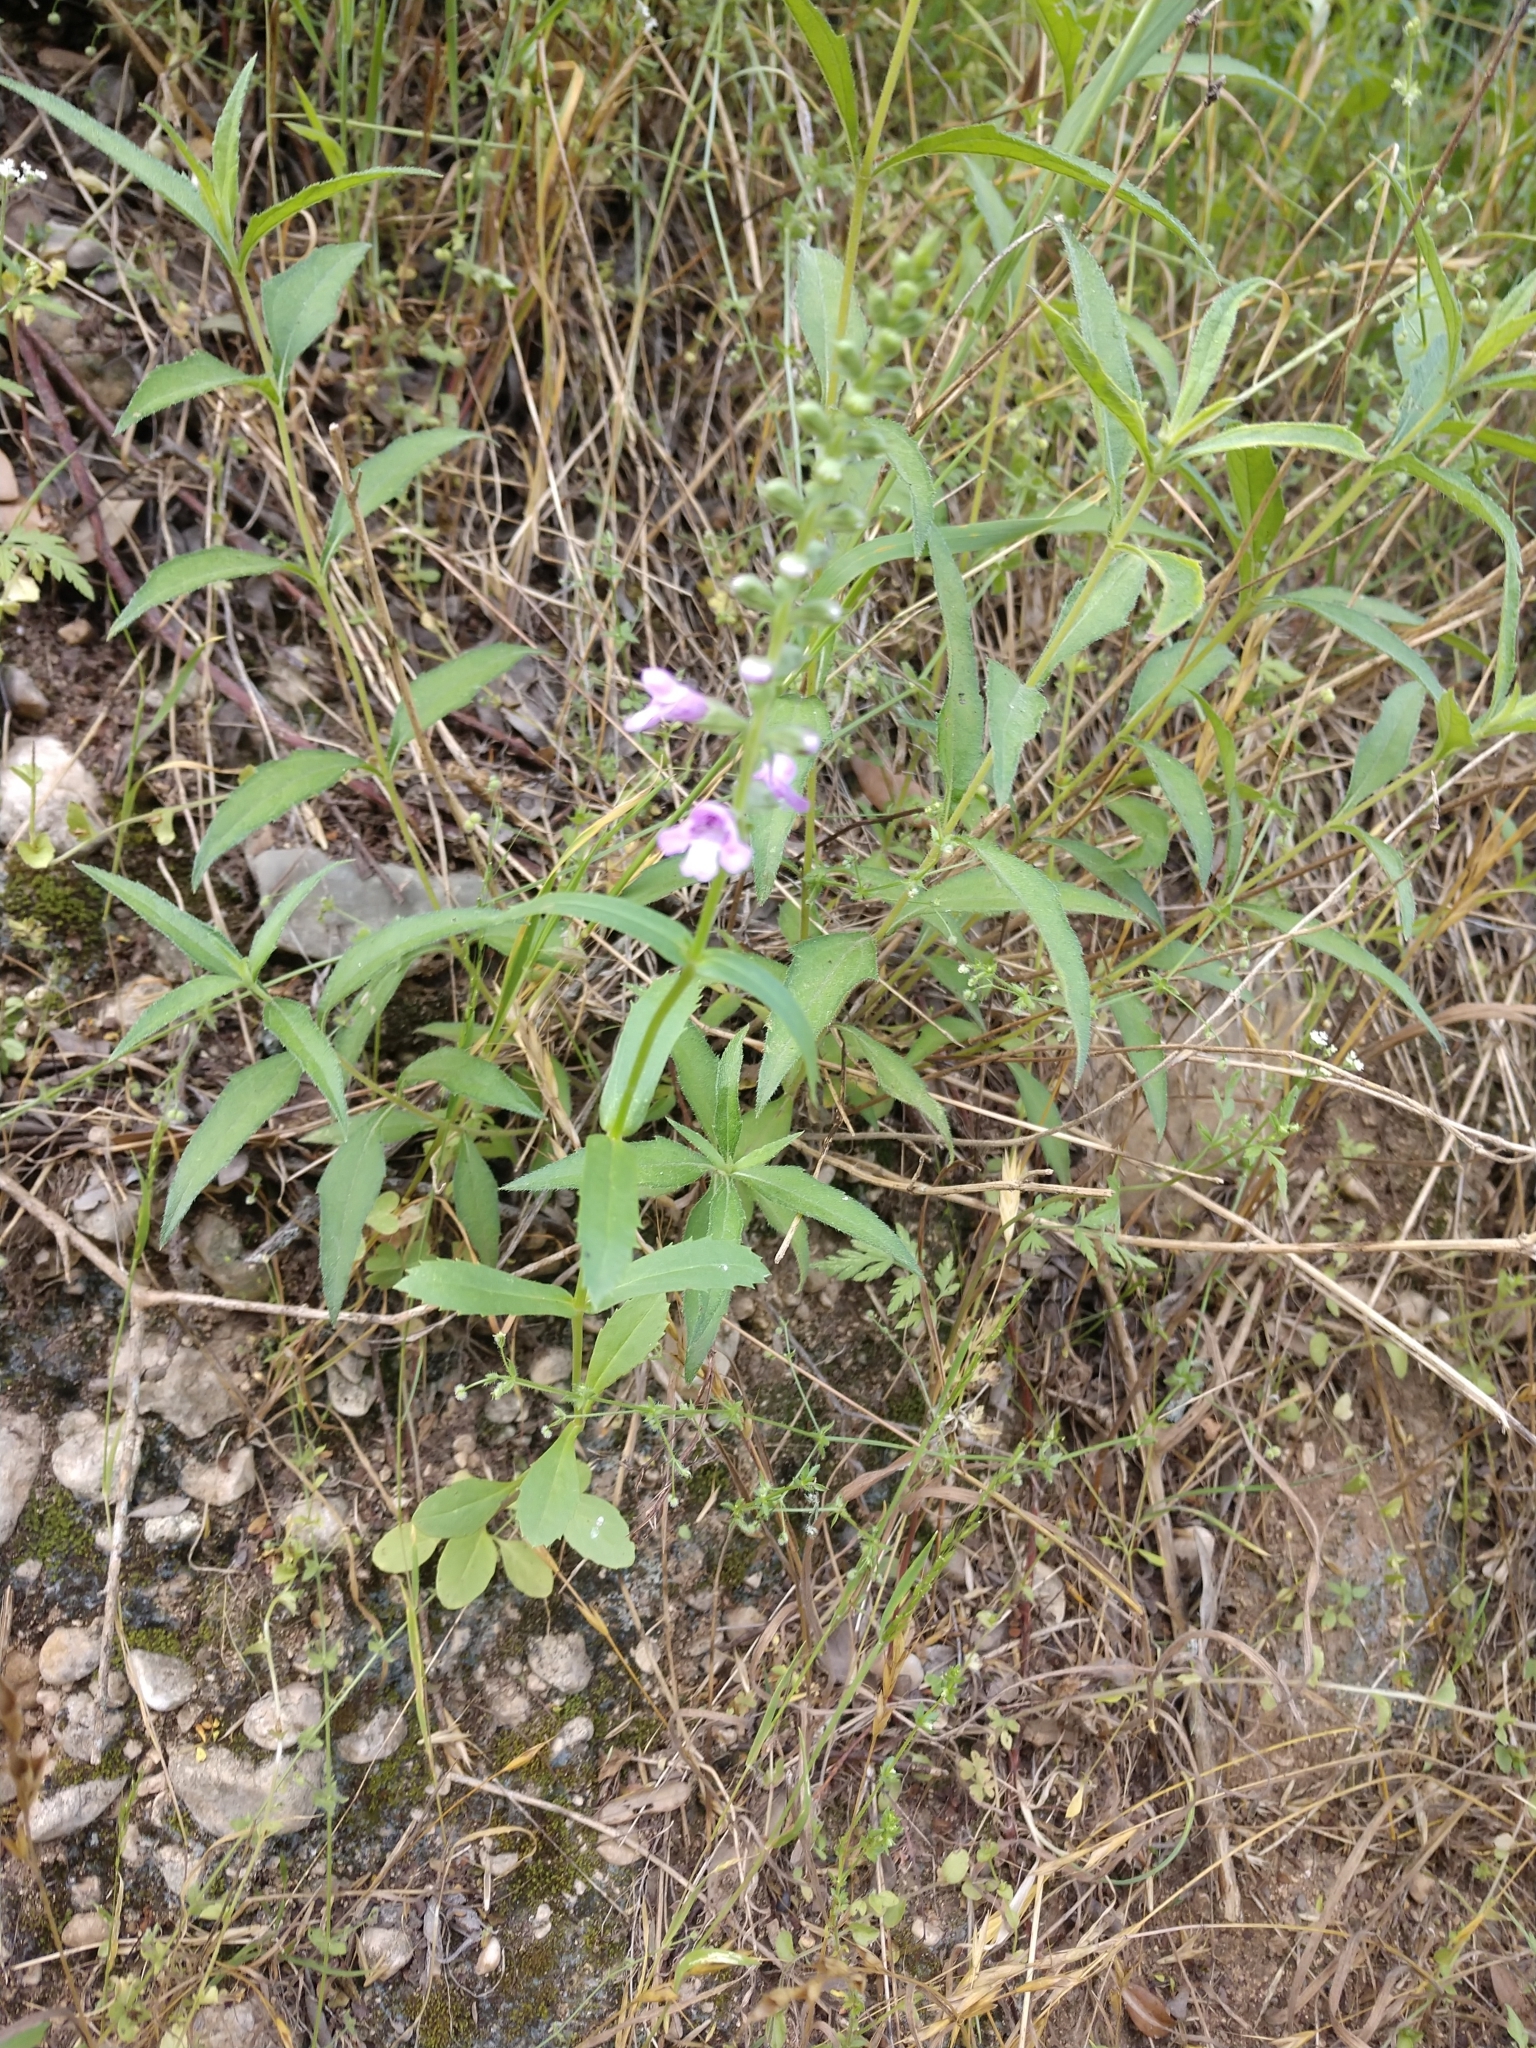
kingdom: Plantae
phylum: Tracheophyta
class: Magnoliopsida
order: Lamiales
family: Lamiaceae
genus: Warnockia
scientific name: Warnockia scutellarioides
